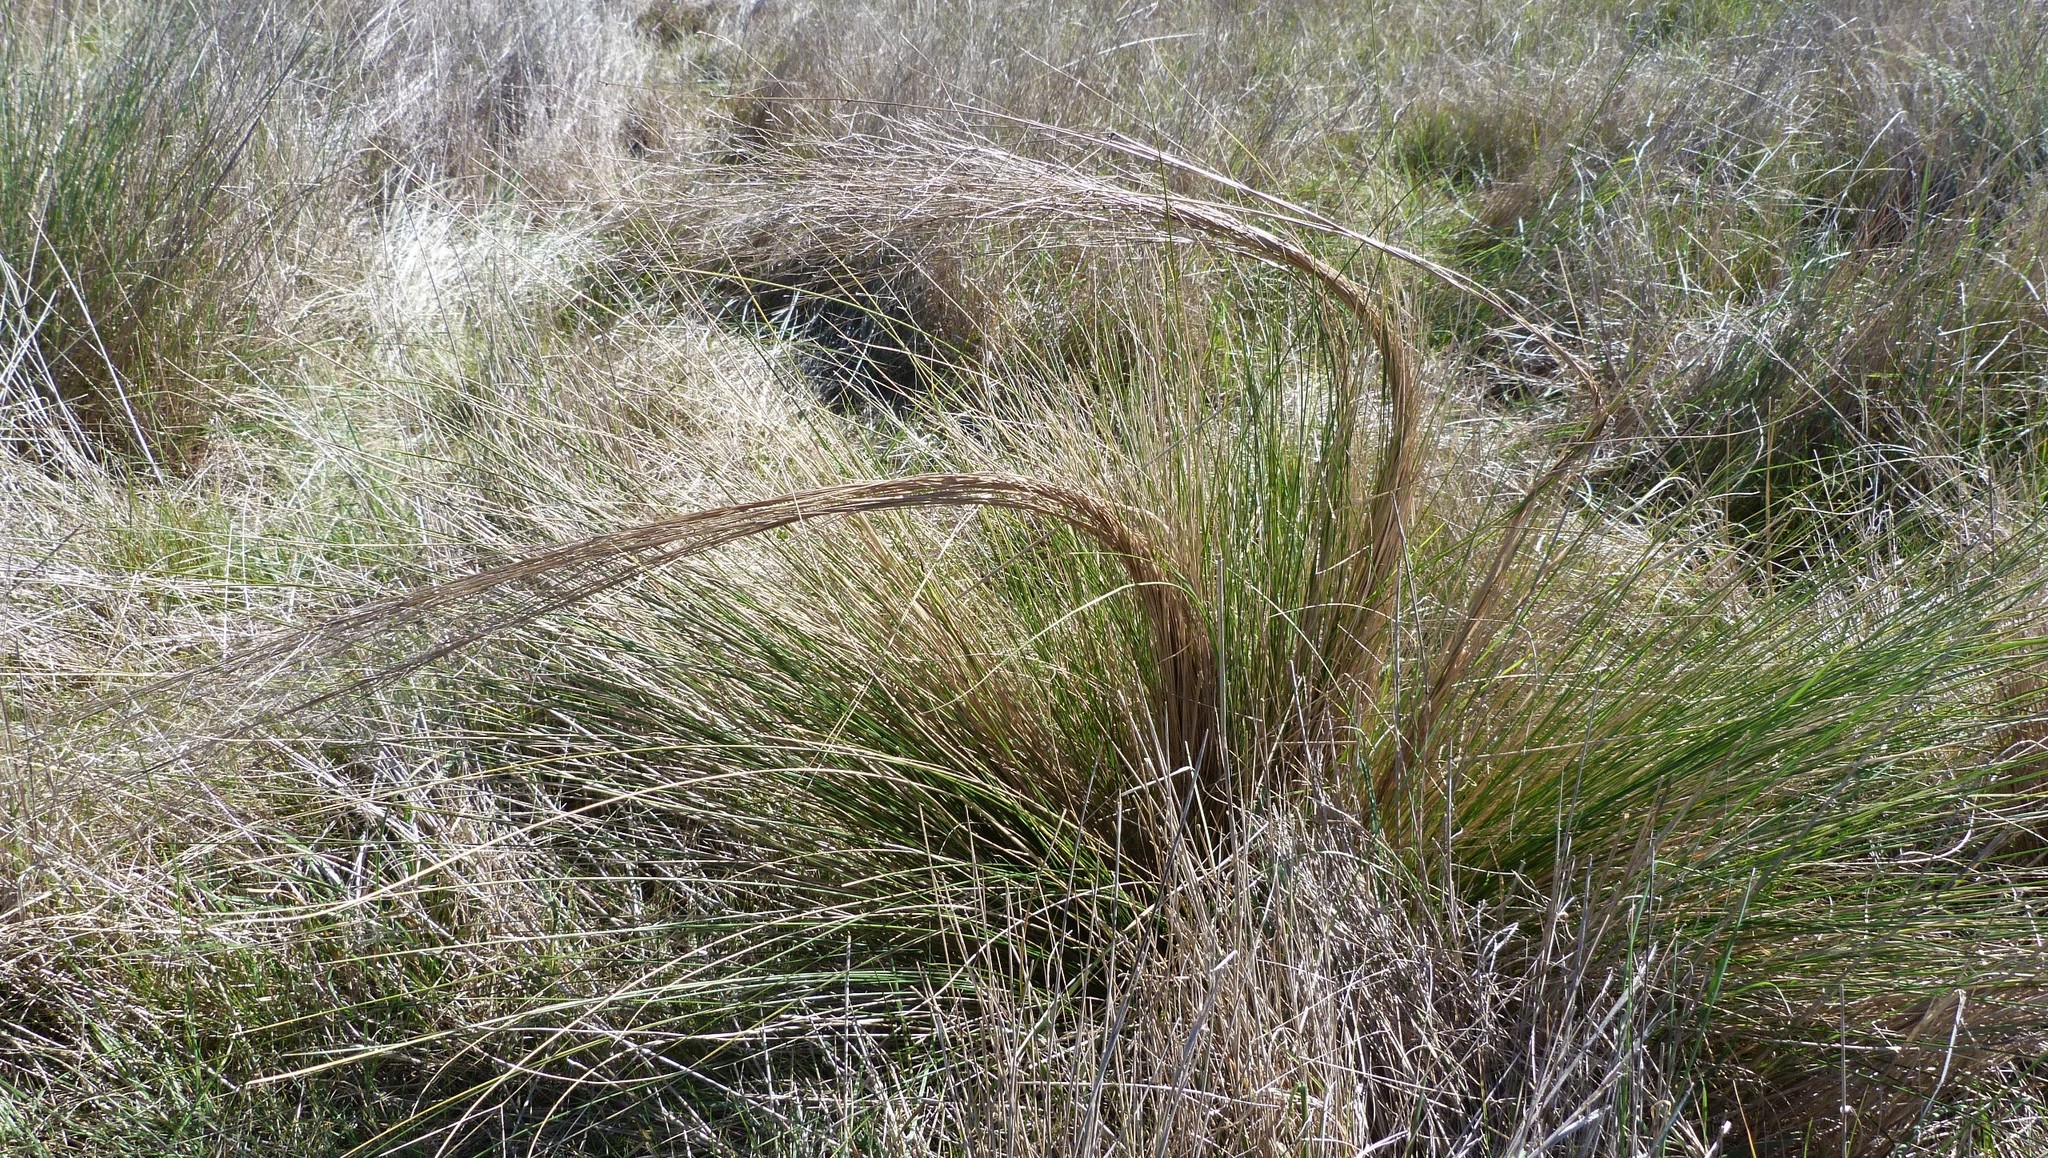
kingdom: Plantae
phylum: Tracheophyta
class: Liliopsida
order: Poales
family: Poaceae
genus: Nassella
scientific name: Nassella trichotoma
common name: Serrated tussock grass
